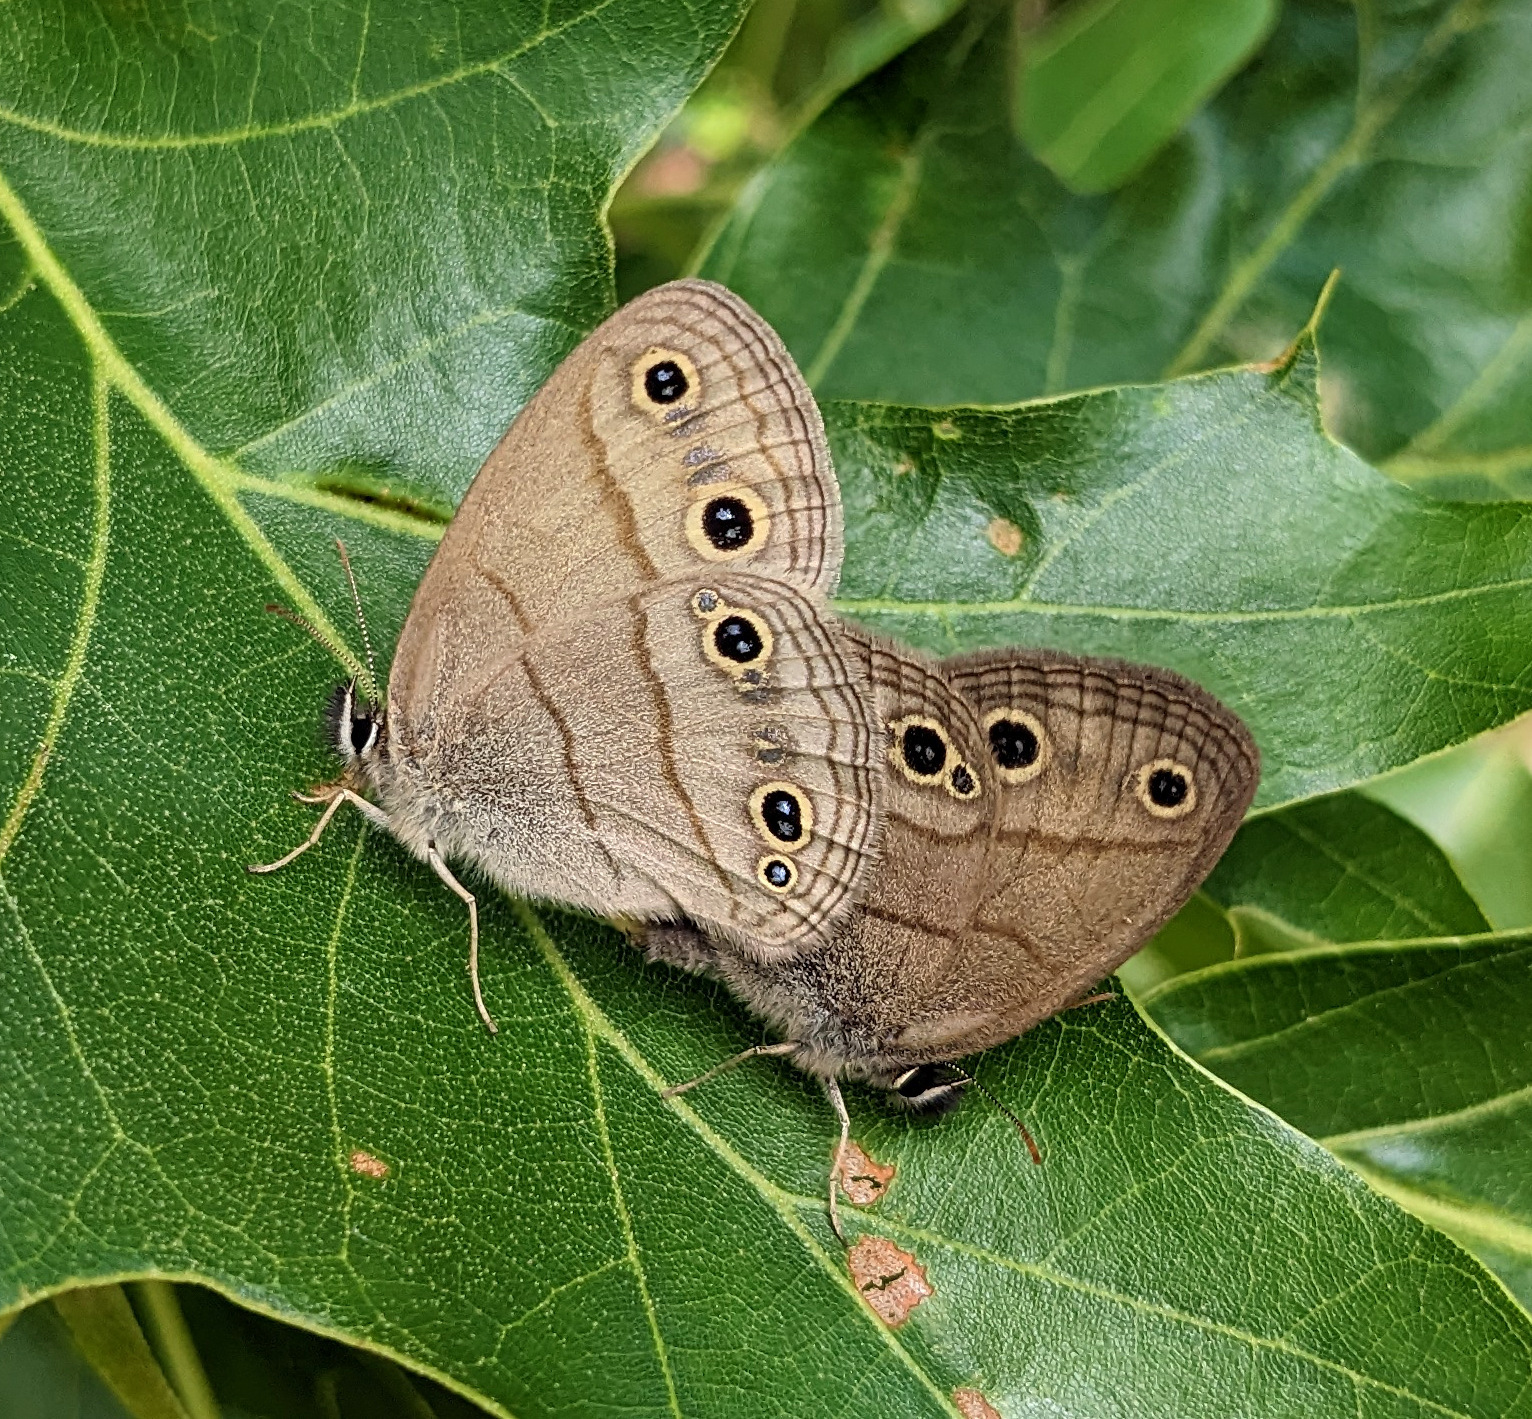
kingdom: Animalia
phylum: Arthropoda
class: Insecta
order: Lepidoptera
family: Nymphalidae
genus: Euptychia
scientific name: Euptychia cymela
